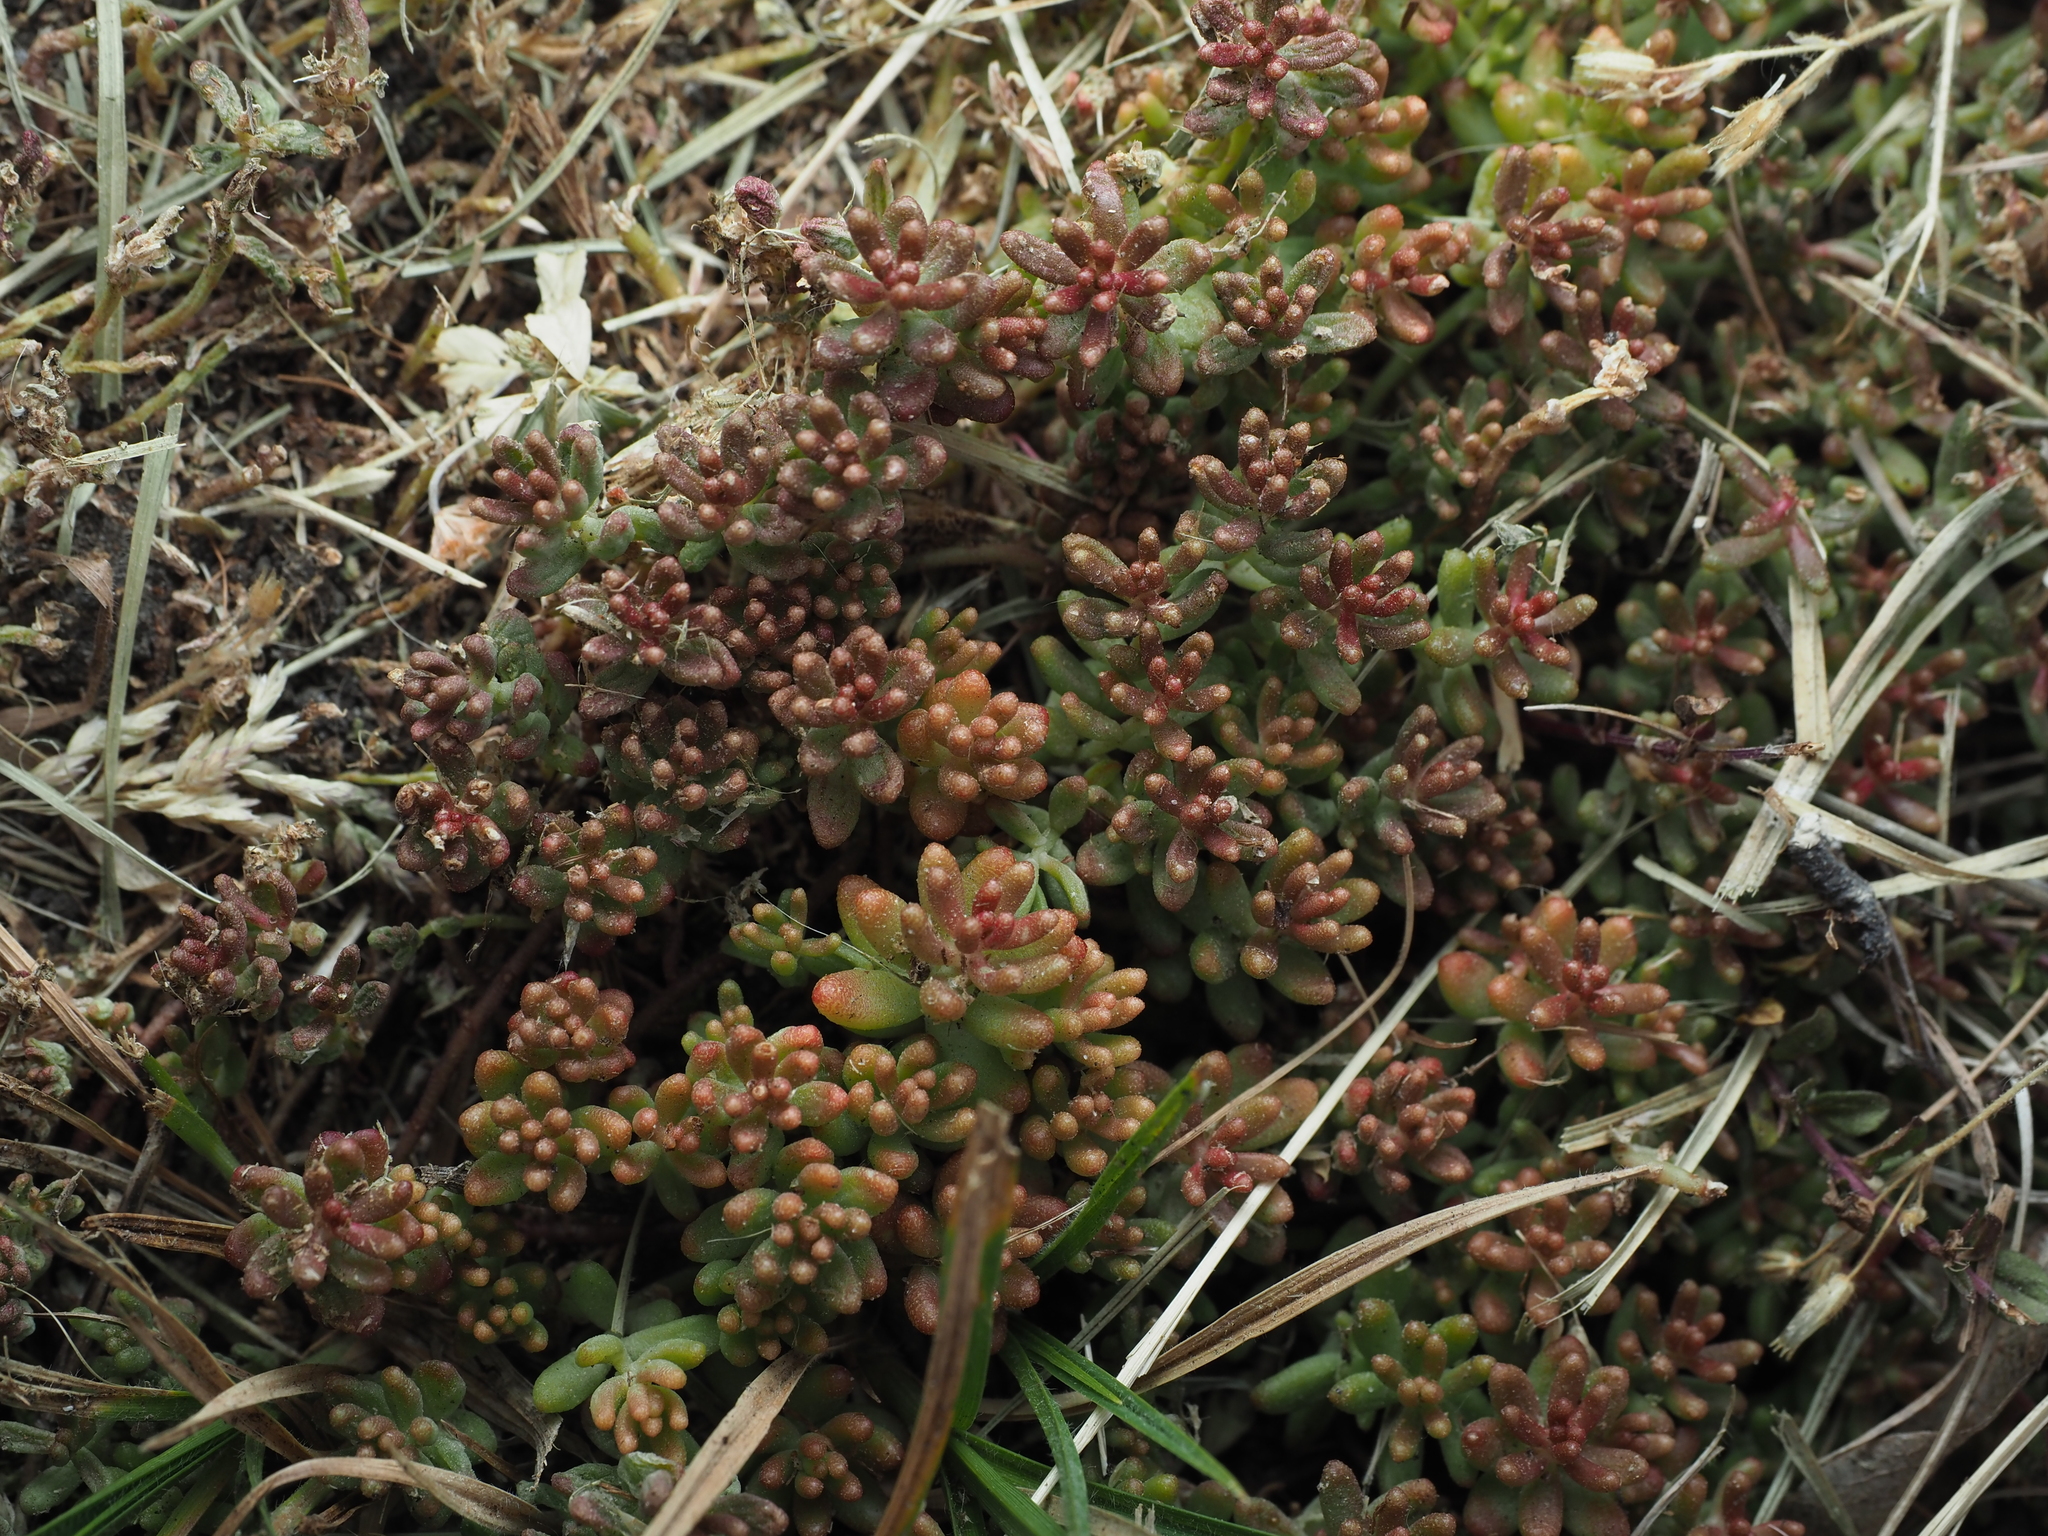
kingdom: Plantae
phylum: Tracheophyta
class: Magnoliopsida
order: Saxifragales
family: Crassulaceae
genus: Sedum
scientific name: Sedum album
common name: White stonecrop
